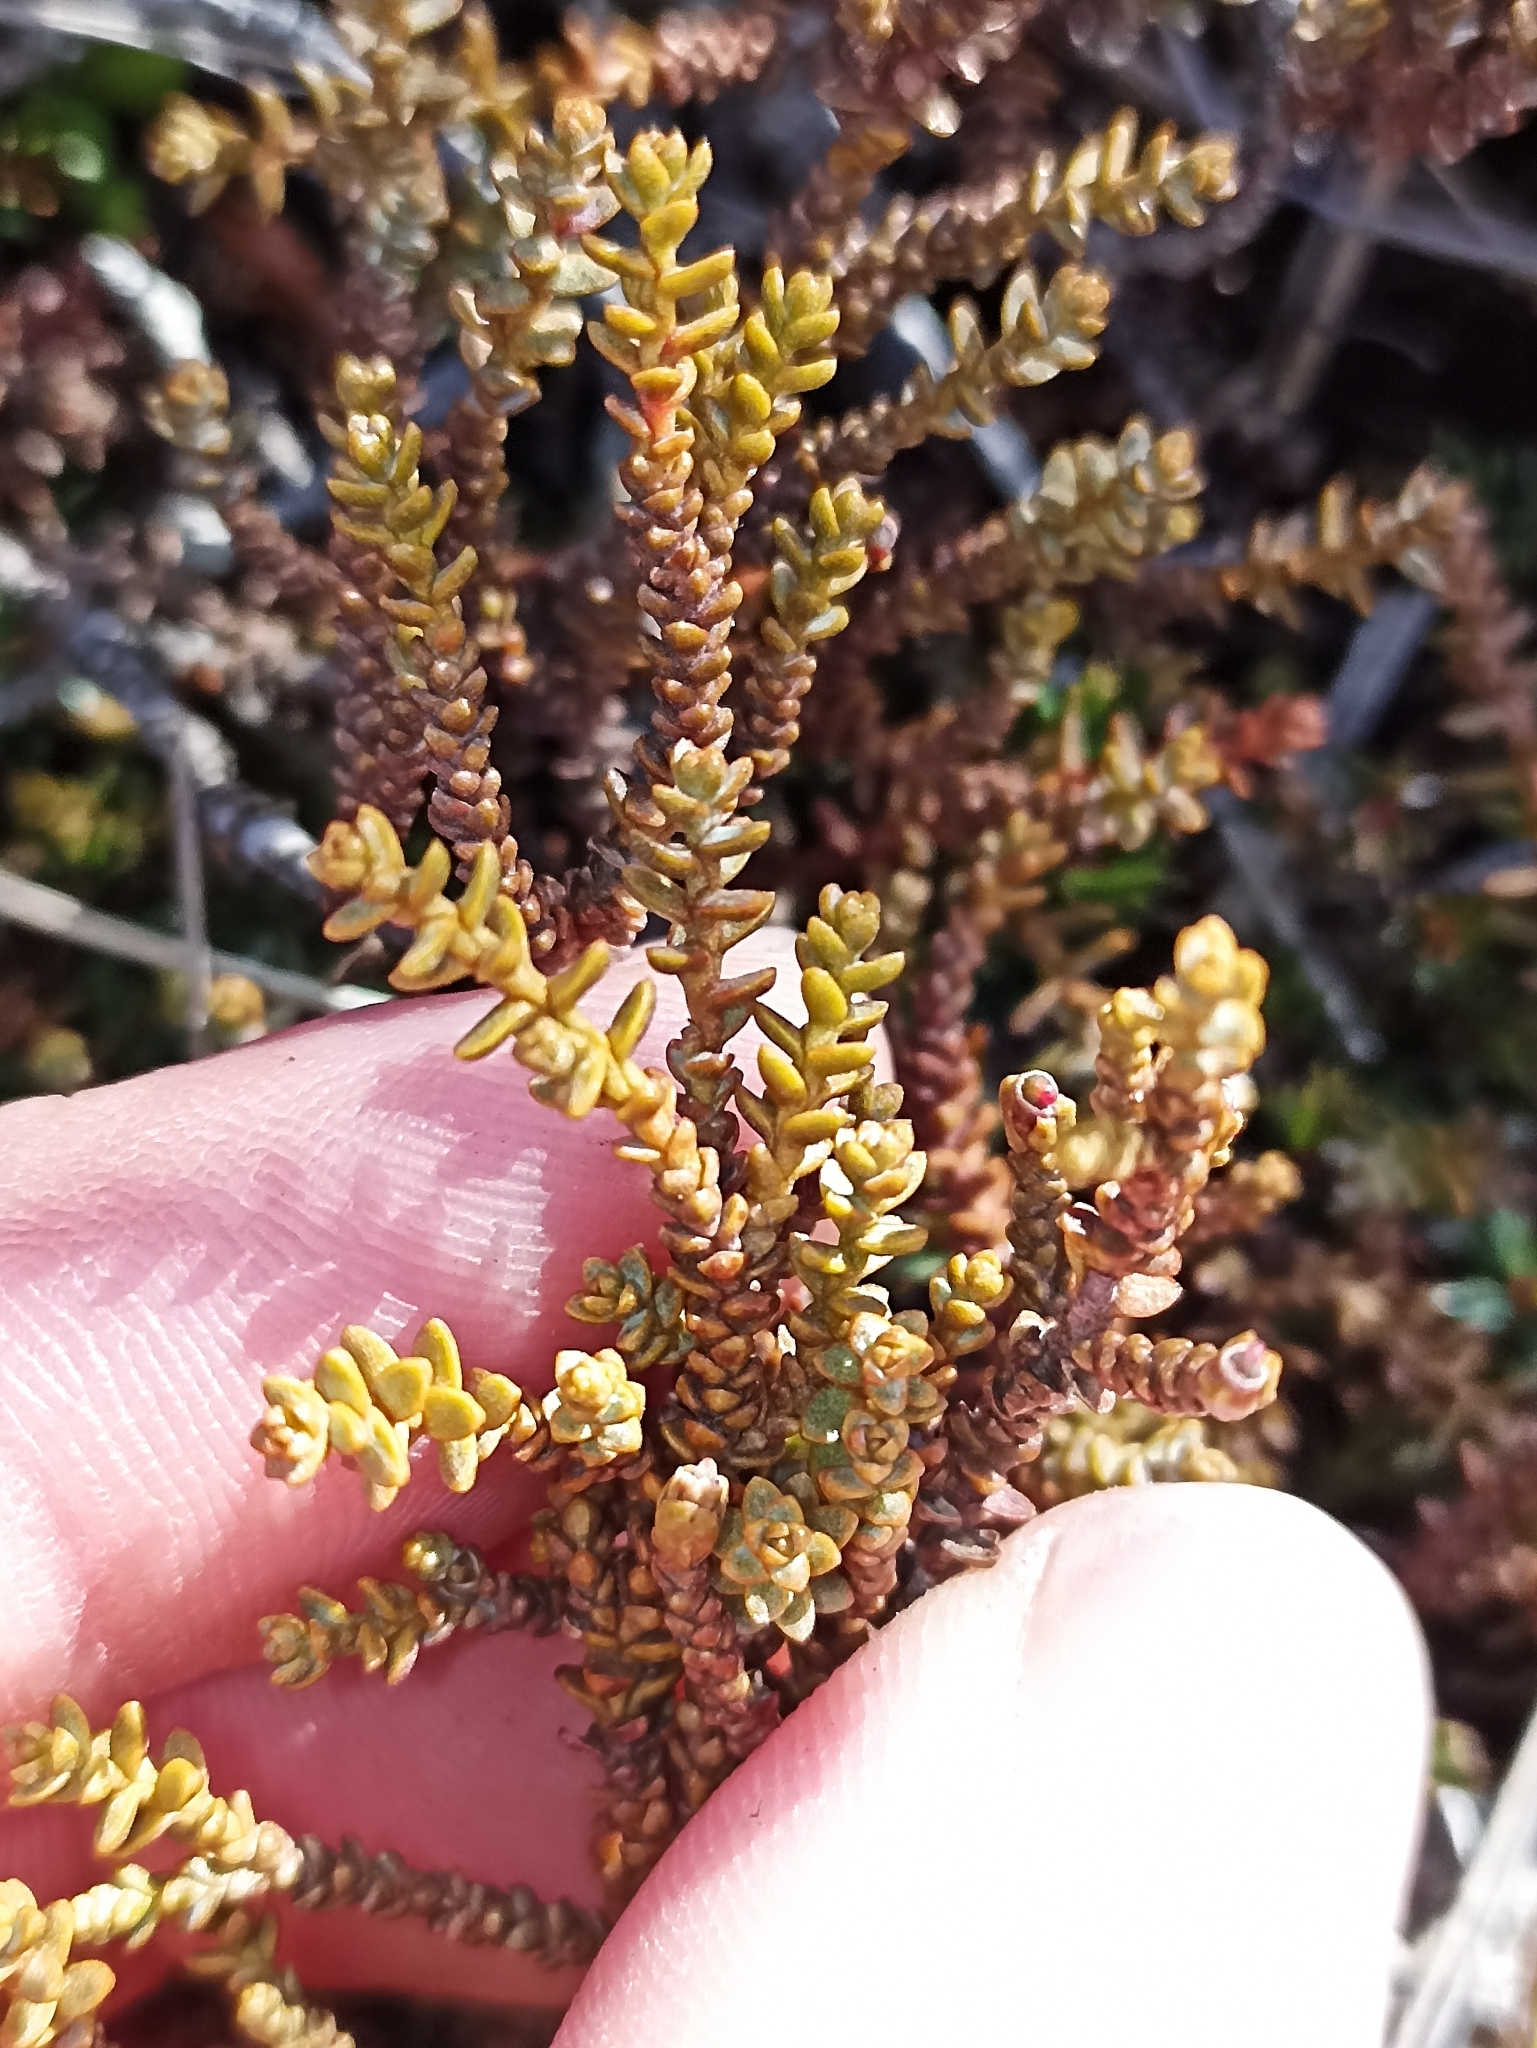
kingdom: Plantae
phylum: Tracheophyta
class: Pinopsida
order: Pinales
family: Podocarpaceae
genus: Lepidothamnus
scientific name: Lepidothamnus laxifolius
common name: Pygmy pine
